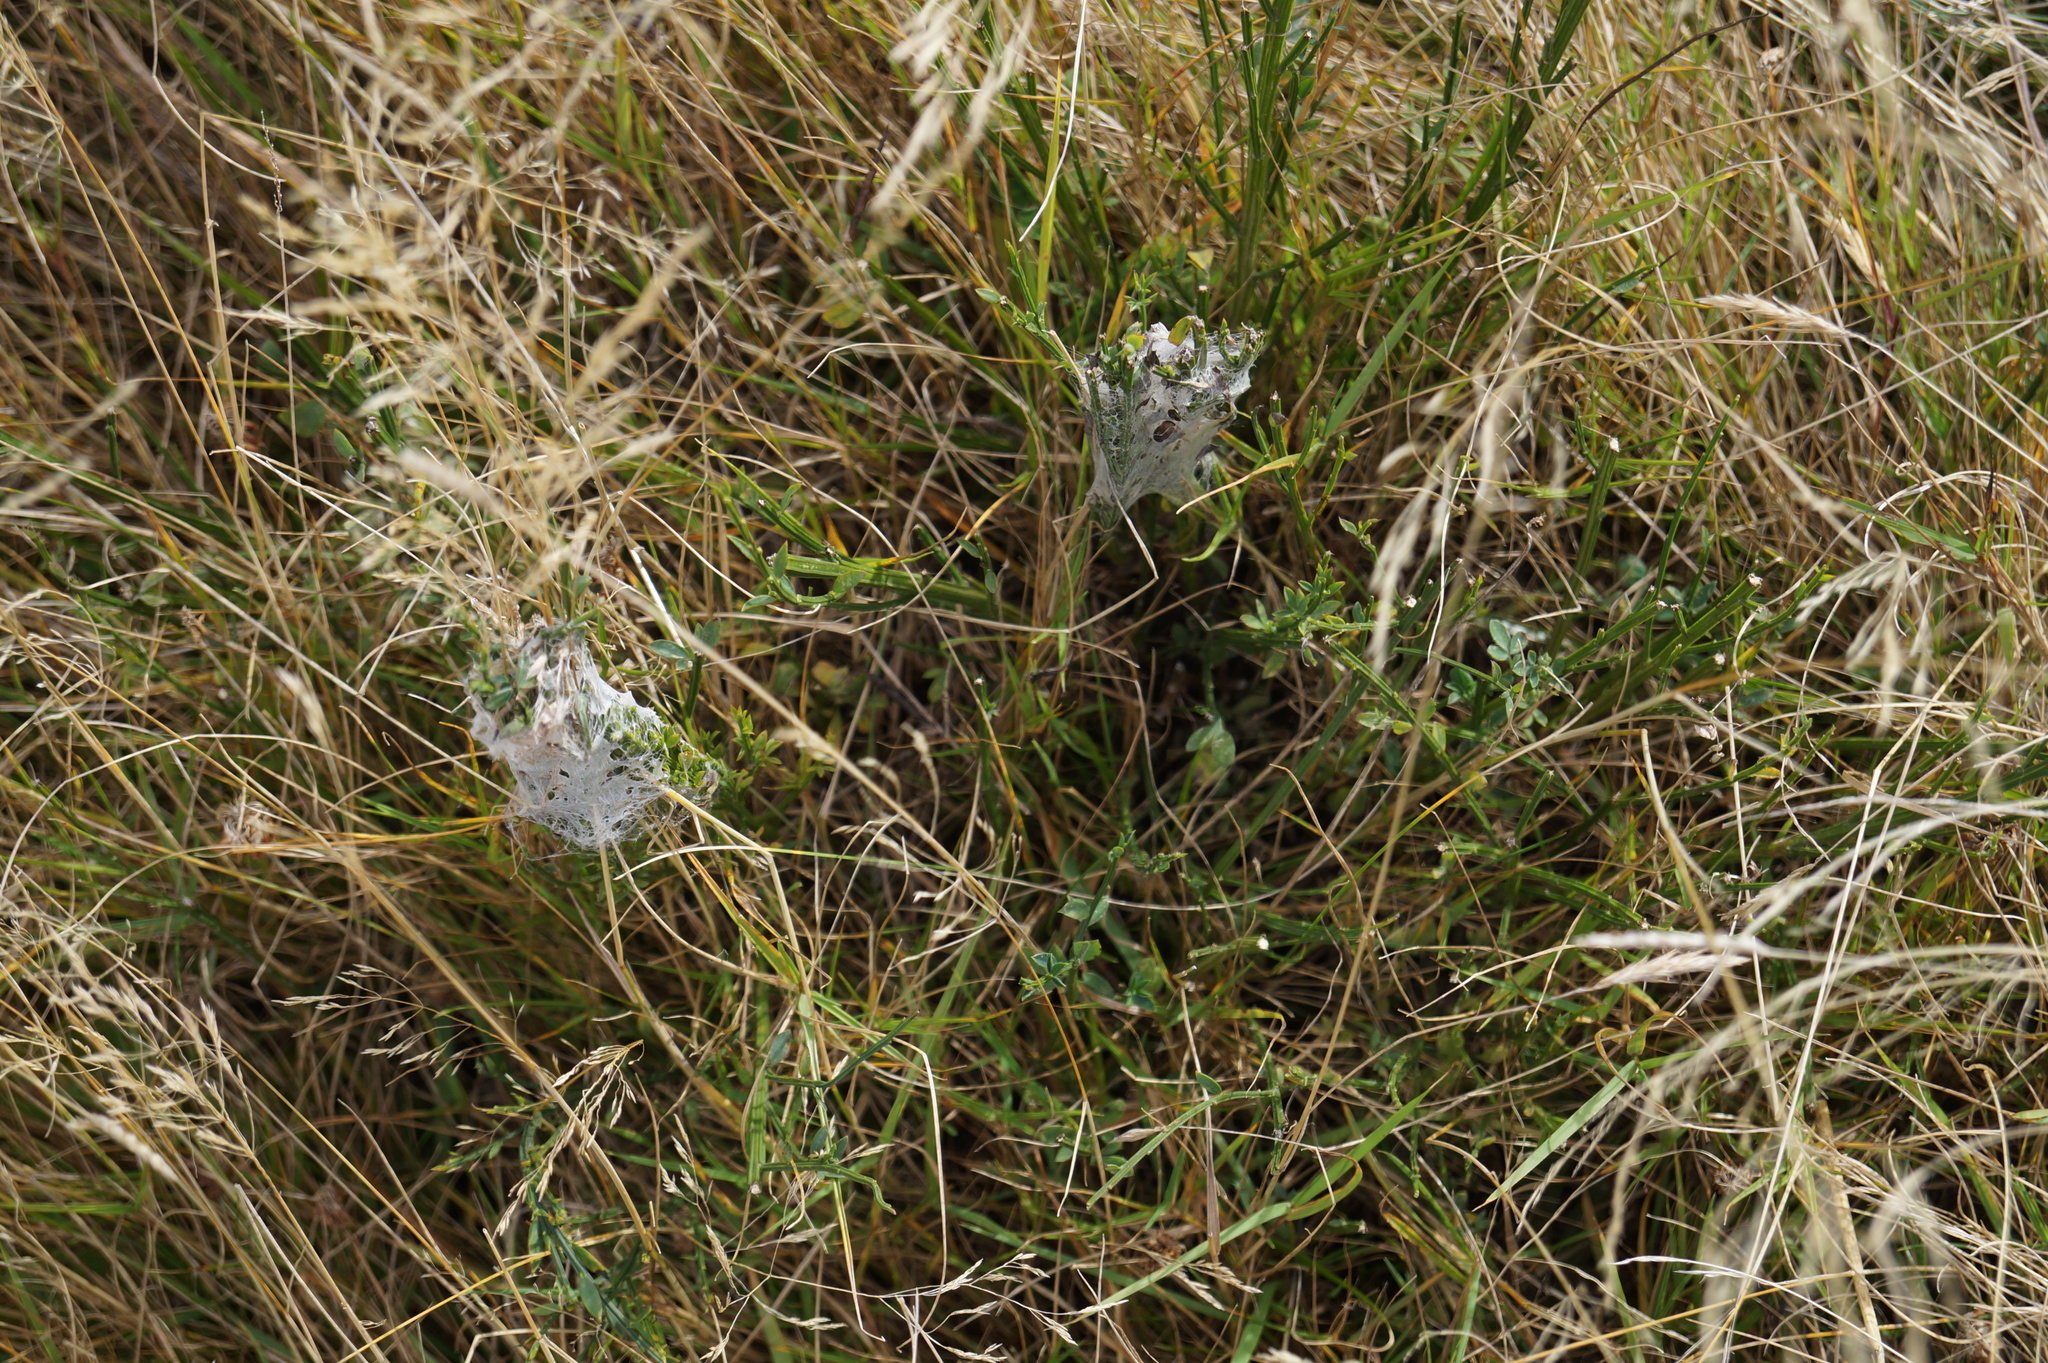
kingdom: Animalia
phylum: Arthropoda
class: Arachnida
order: Araneae
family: Pisauridae
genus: Dolomedes
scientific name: Dolomedes minor
